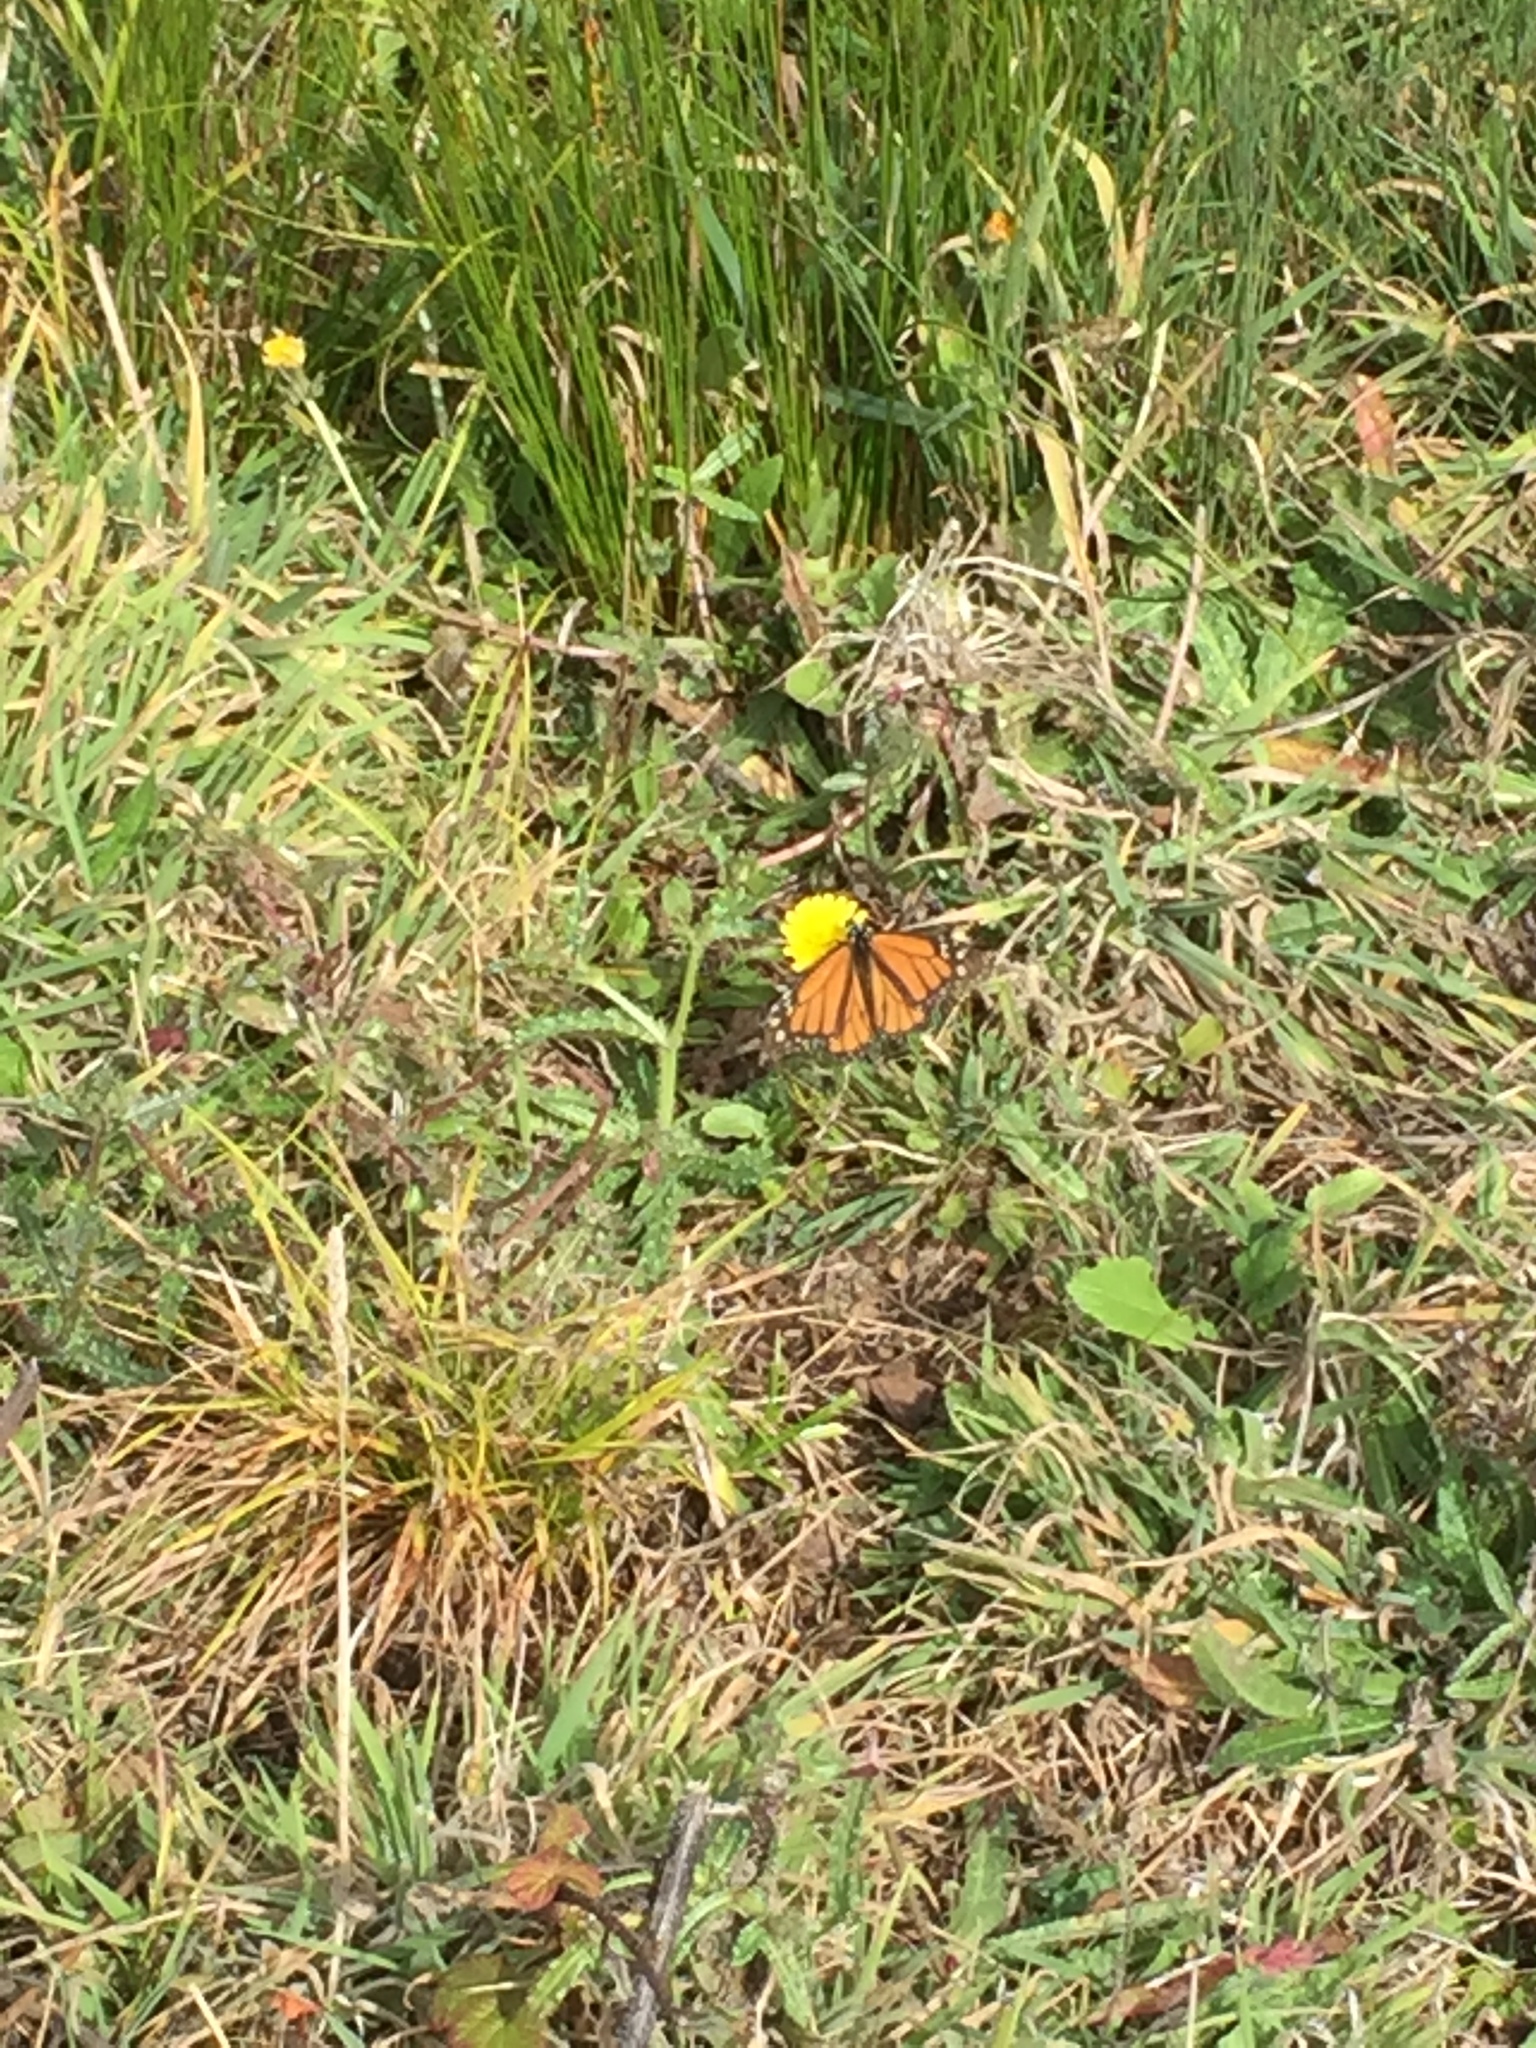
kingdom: Animalia
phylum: Arthropoda
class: Insecta
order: Lepidoptera
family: Nymphalidae
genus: Danaus
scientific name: Danaus plexippus
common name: Monarch
